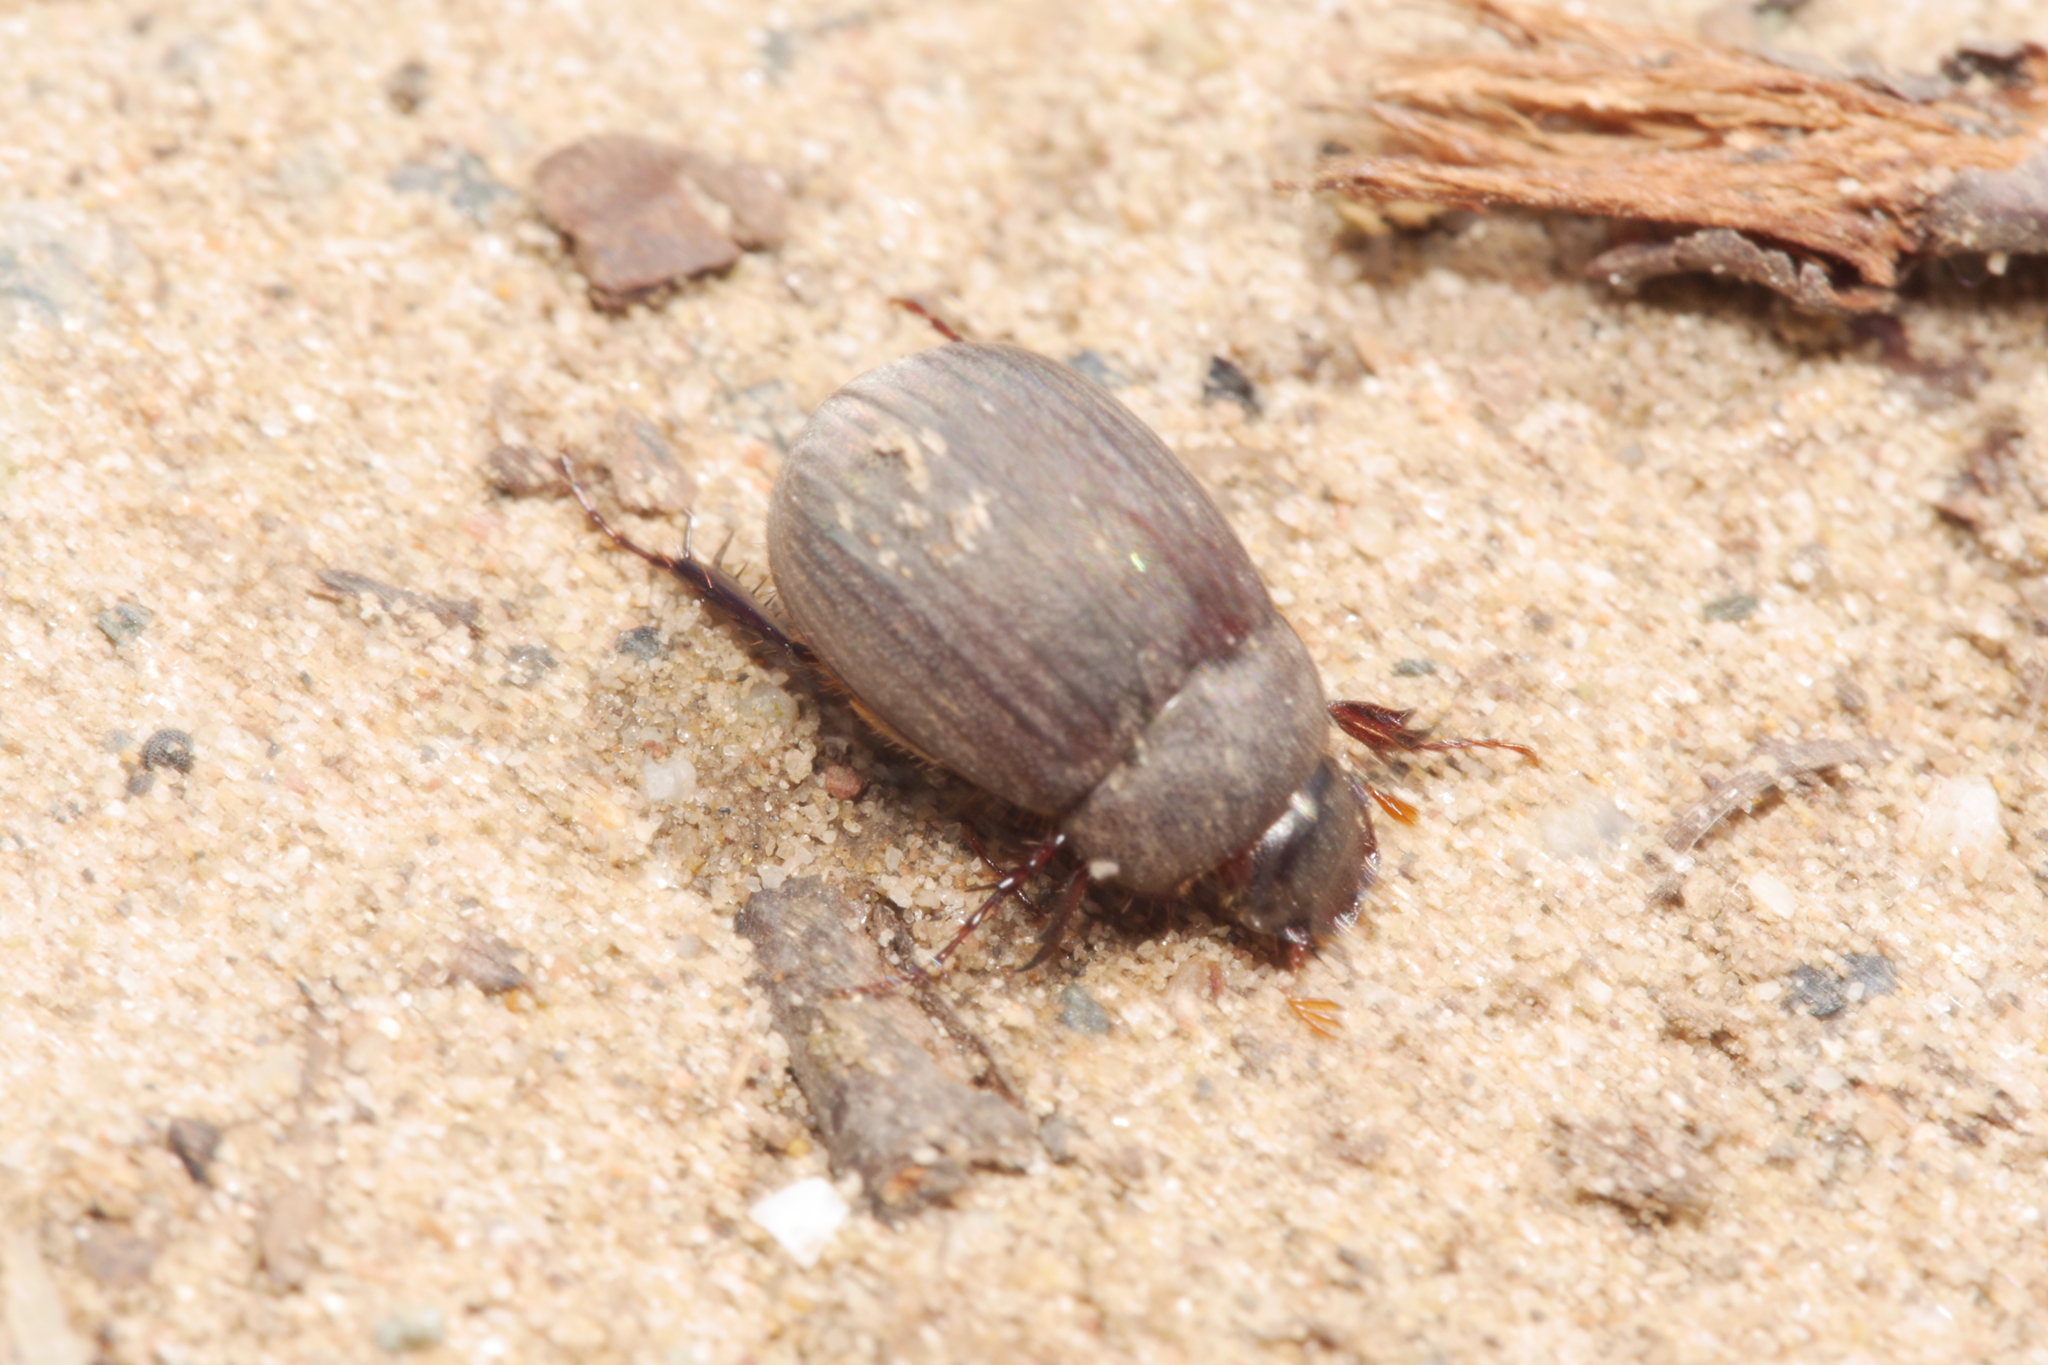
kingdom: Animalia
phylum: Arthropoda
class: Insecta
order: Coleoptera
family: Scarabaeidae
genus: Maladera
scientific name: Maladera holosericea
